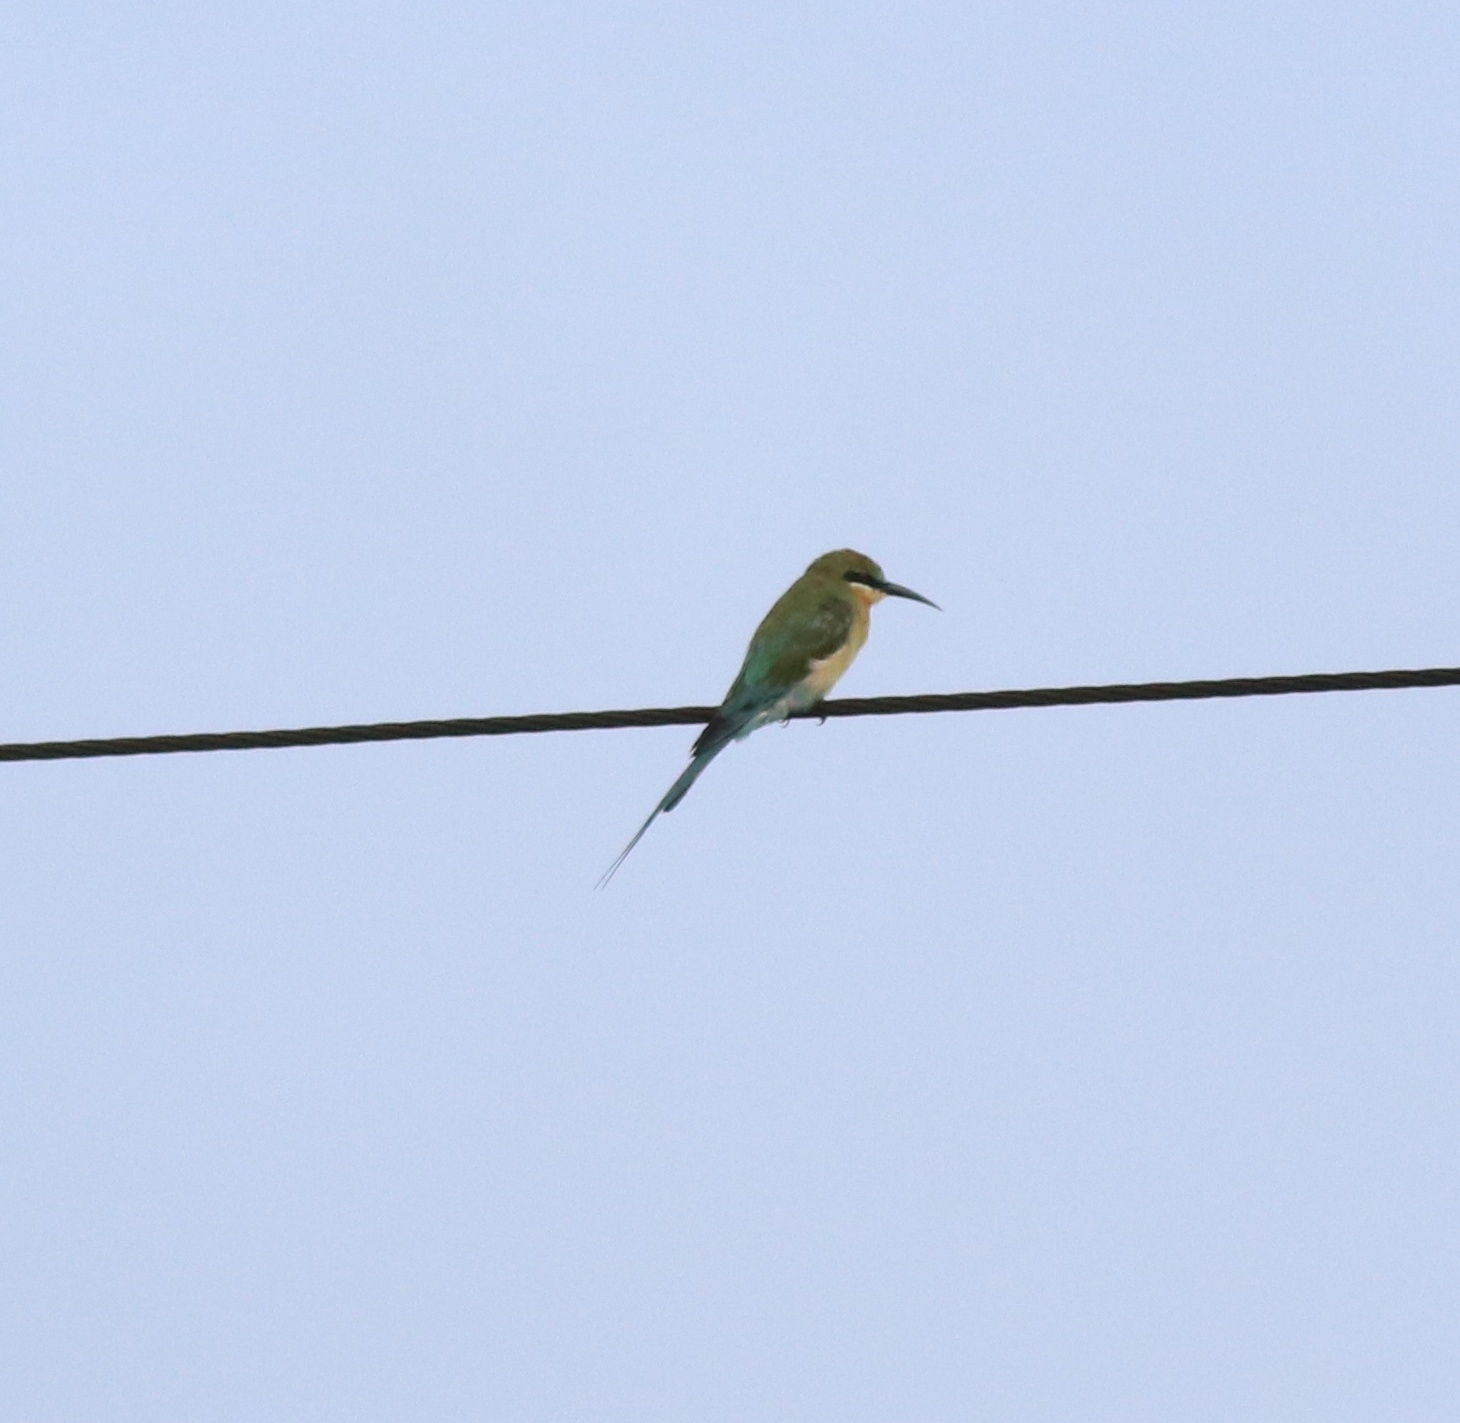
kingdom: Animalia
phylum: Chordata
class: Aves
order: Coraciiformes
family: Meropidae
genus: Merops
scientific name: Merops philippinus
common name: Blue-tailed bee-eater
